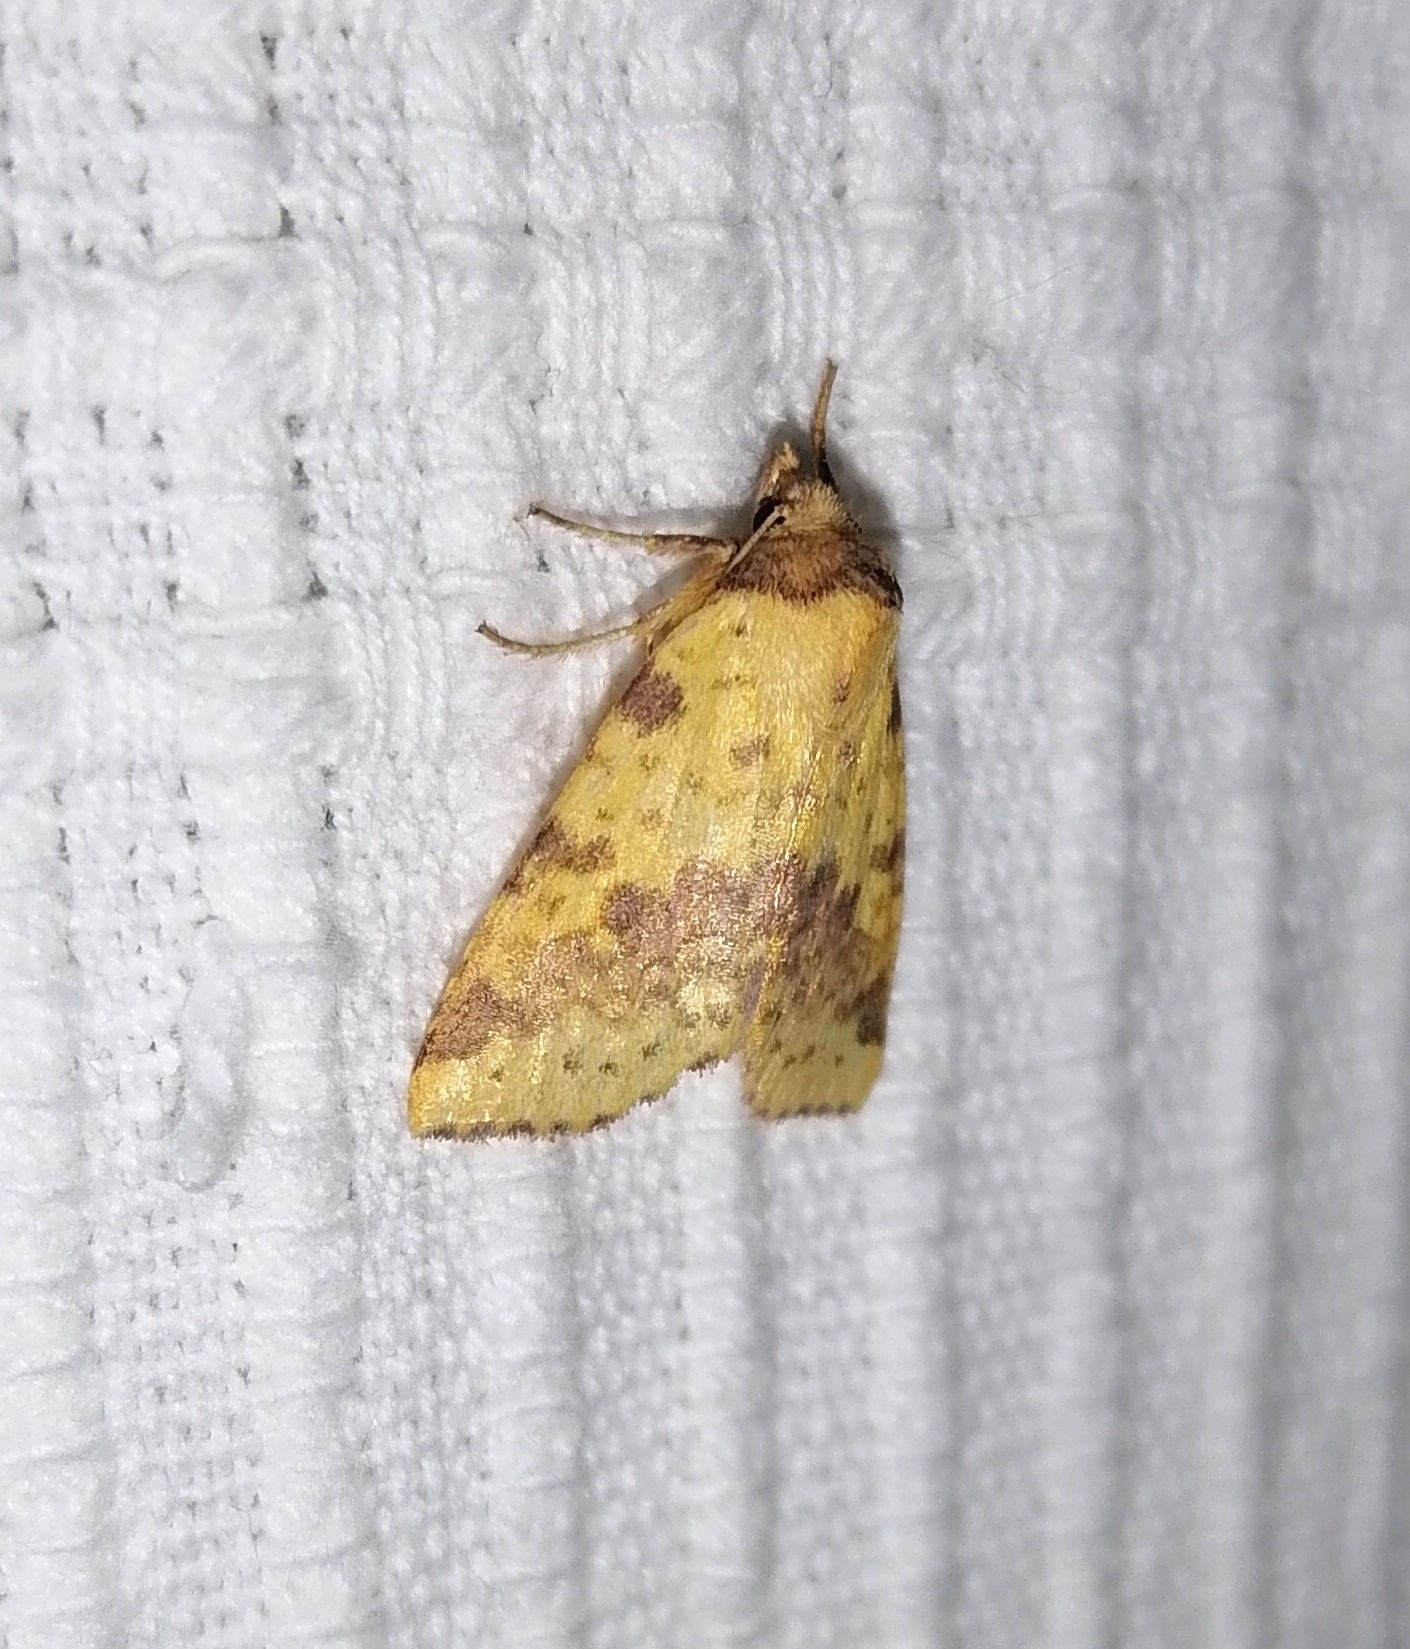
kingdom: Animalia
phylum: Arthropoda
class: Insecta
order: Lepidoptera
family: Noctuidae
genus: Xanthia
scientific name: Xanthia togata
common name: Pink-barred sallow
